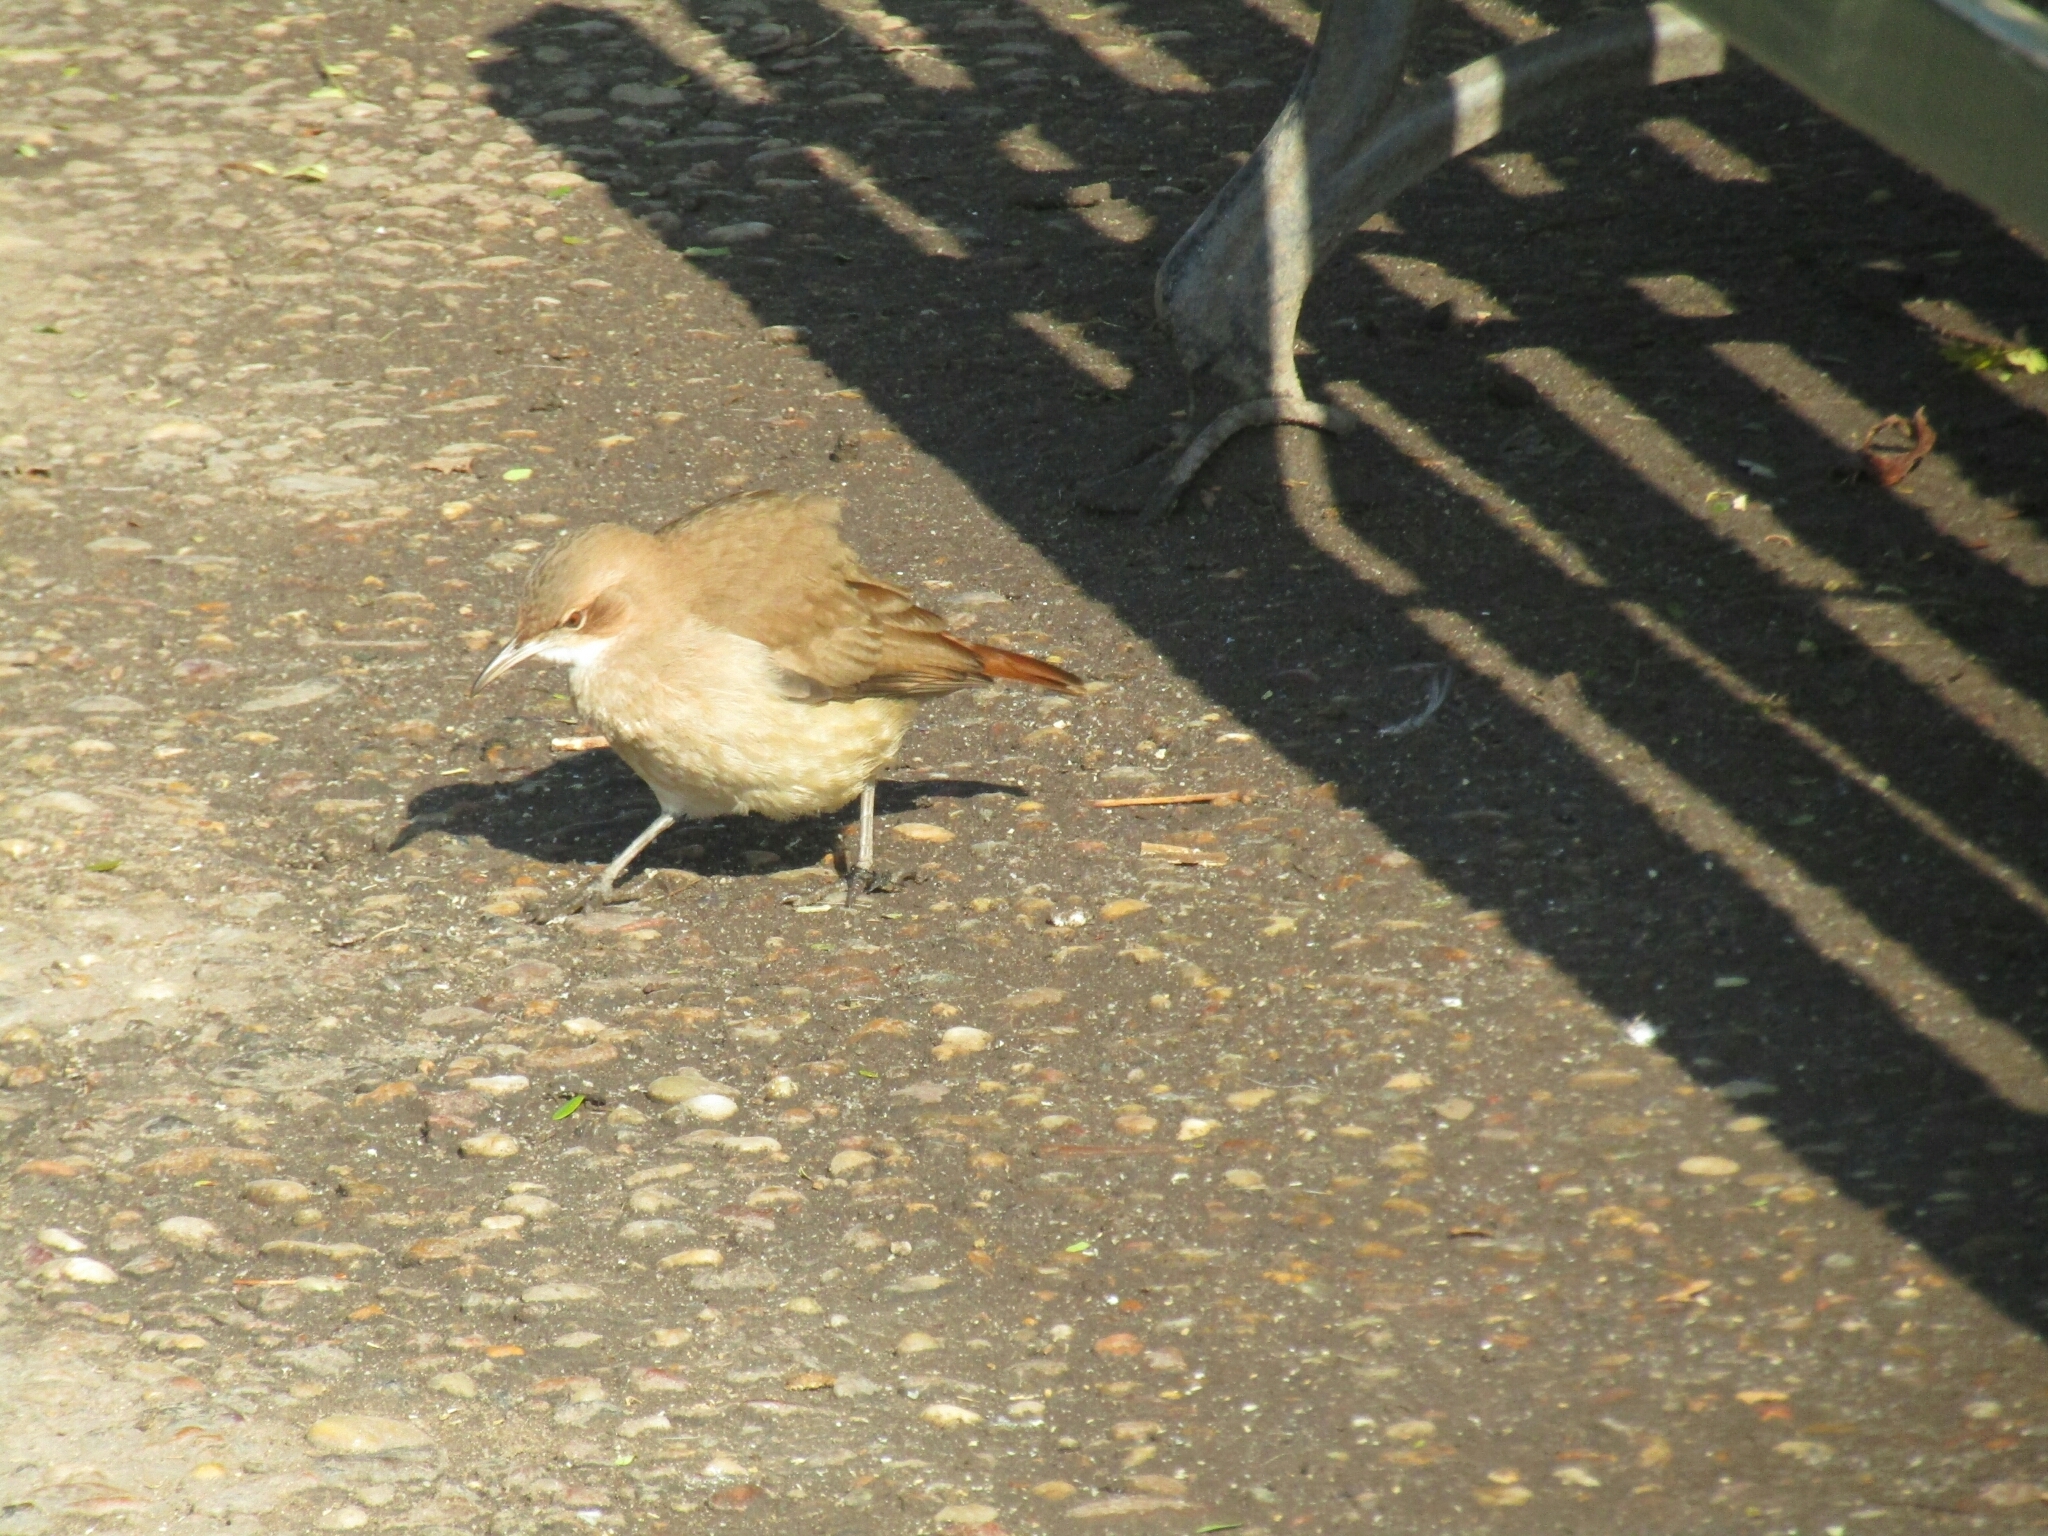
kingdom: Animalia
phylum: Chordata
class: Aves
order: Passeriformes
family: Furnariidae
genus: Furnarius
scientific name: Furnarius rufus
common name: Rufous hornero
